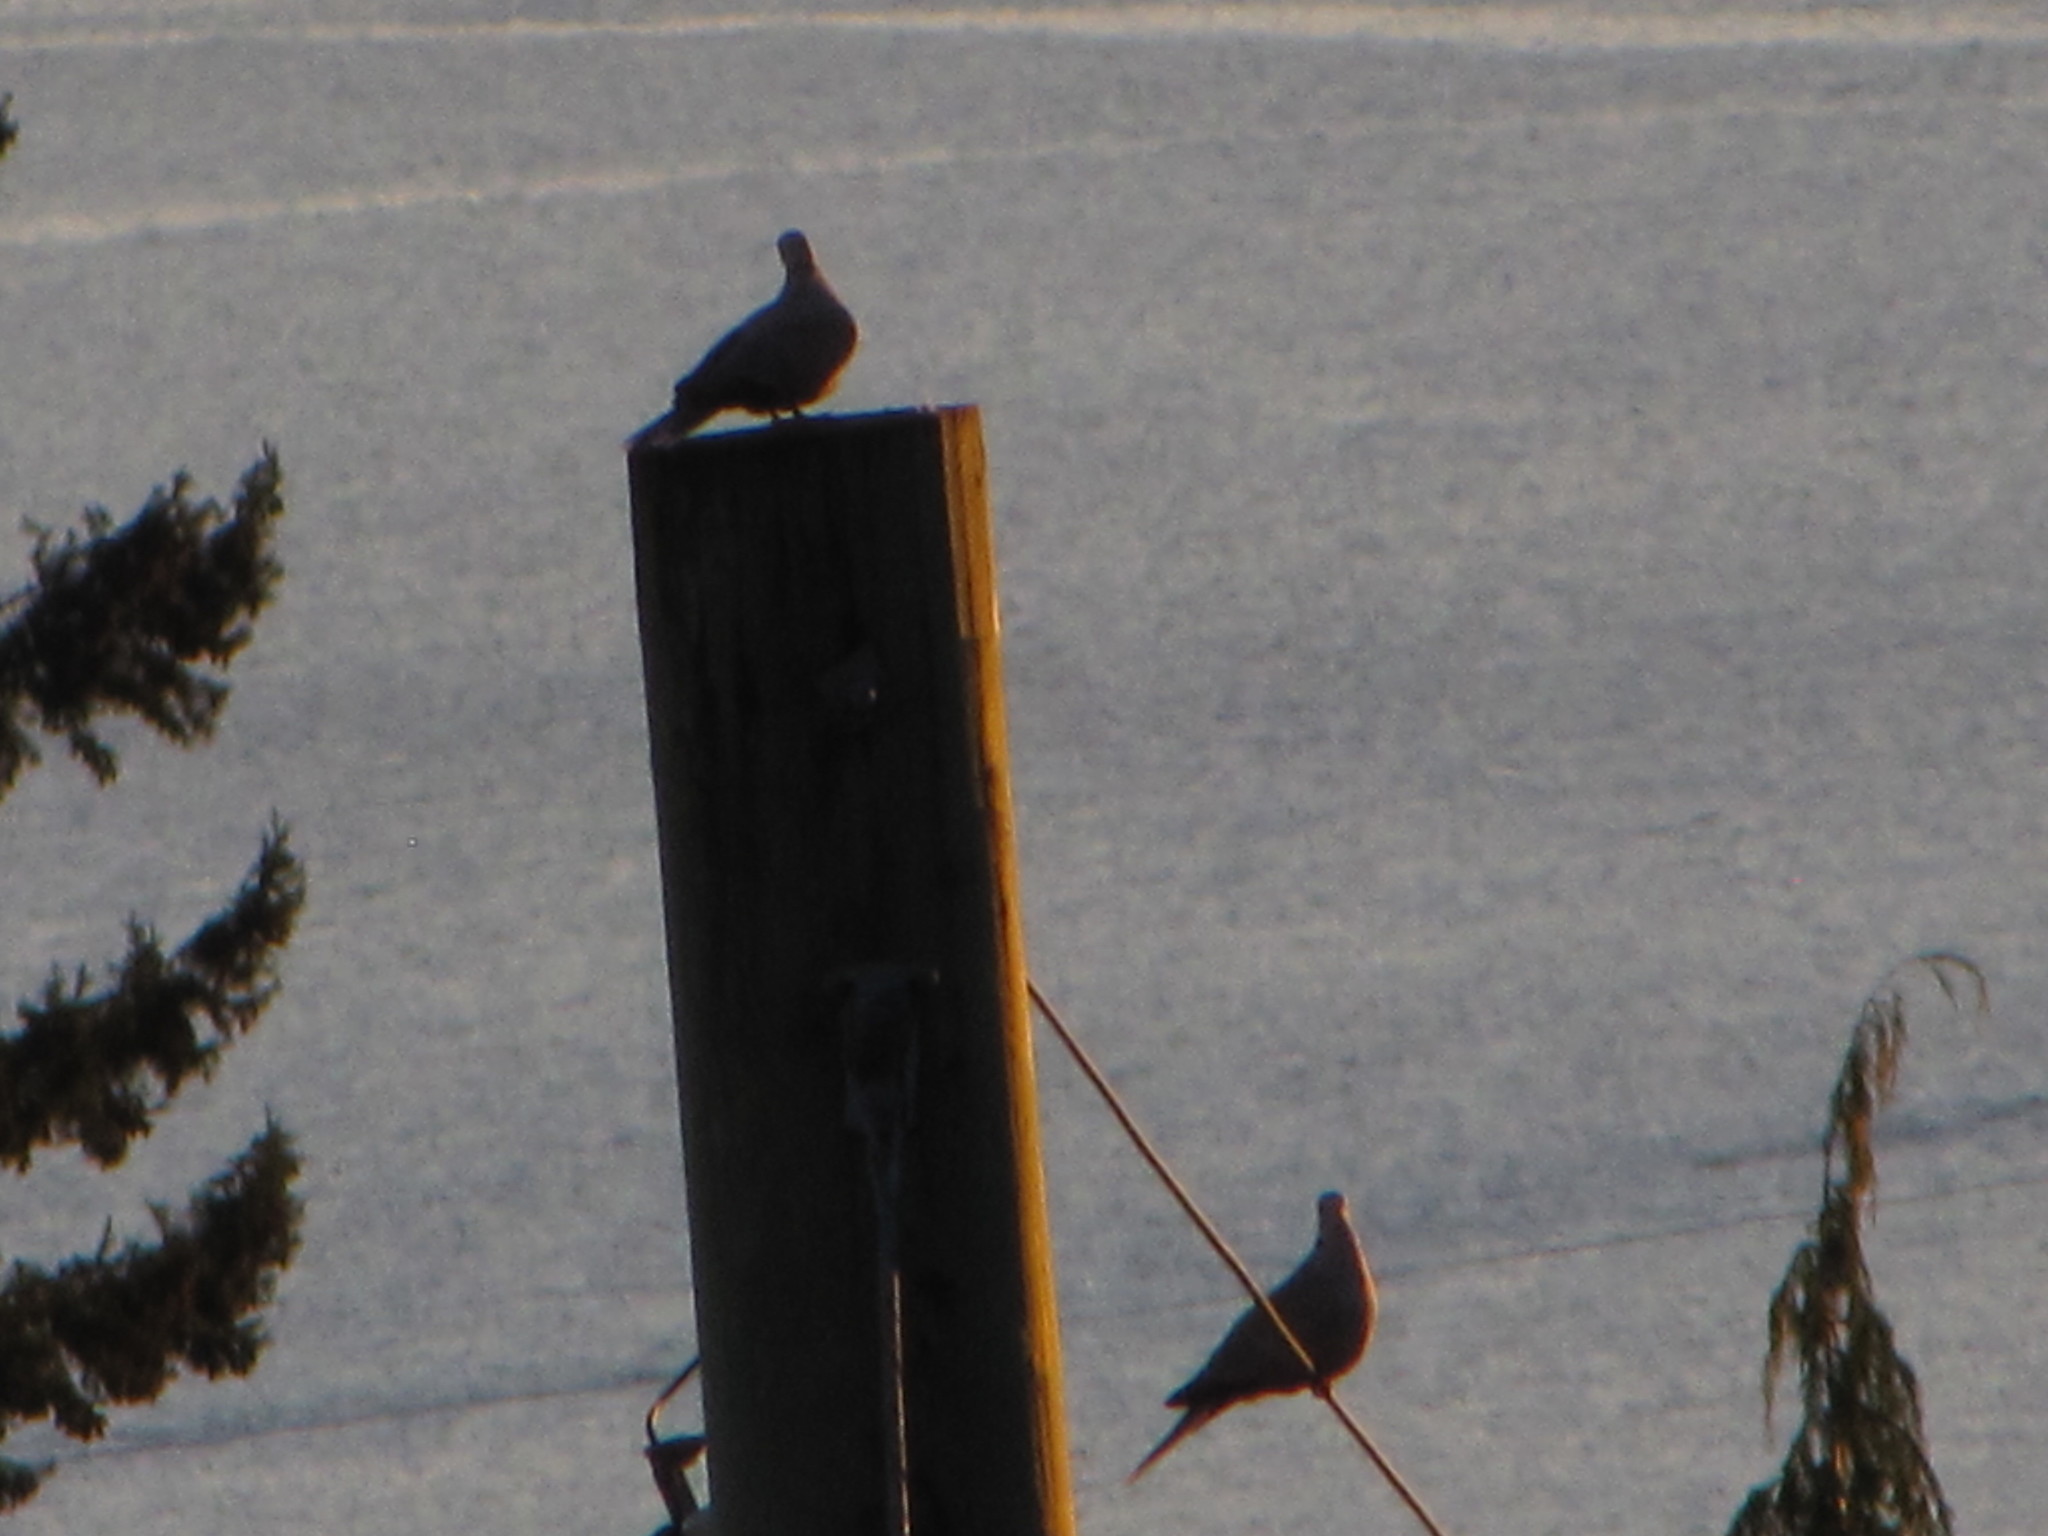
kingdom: Animalia
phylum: Chordata
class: Aves
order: Columbiformes
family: Columbidae
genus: Streptopelia
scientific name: Streptopelia decaocto
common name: Eurasian collared dove
